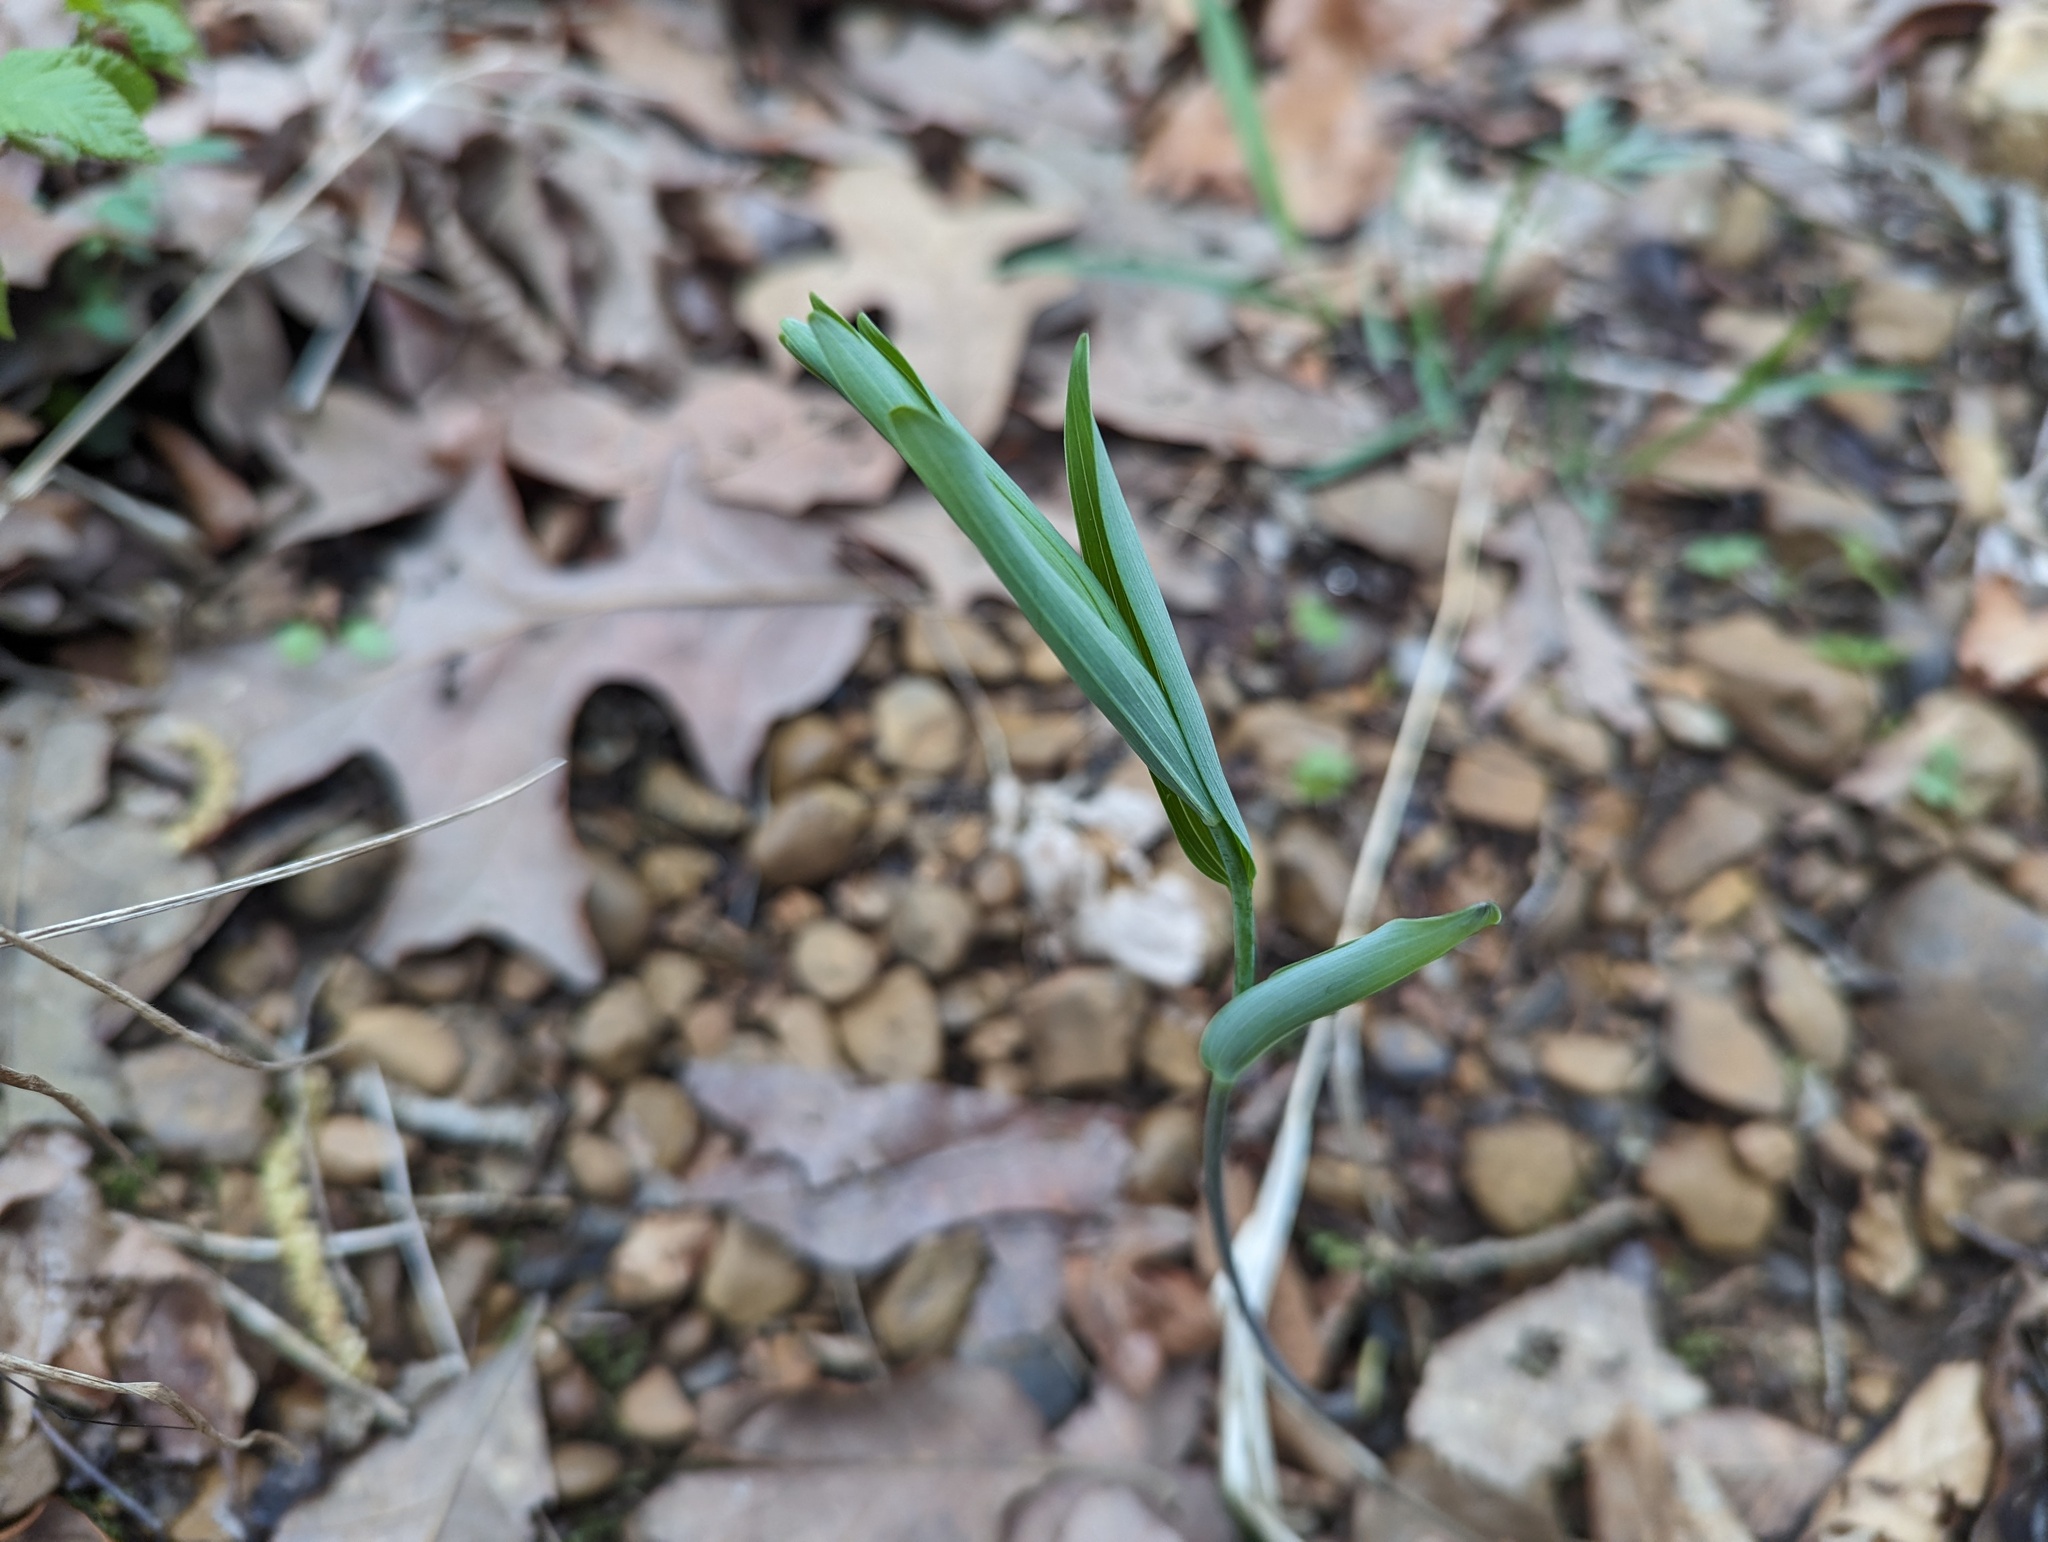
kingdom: Plantae
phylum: Tracheophyta
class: Liliopsida
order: Asparagales
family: Asparagaceae
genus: Polygonatum
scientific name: Polygonatum biflorum
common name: American solomon's-seal
